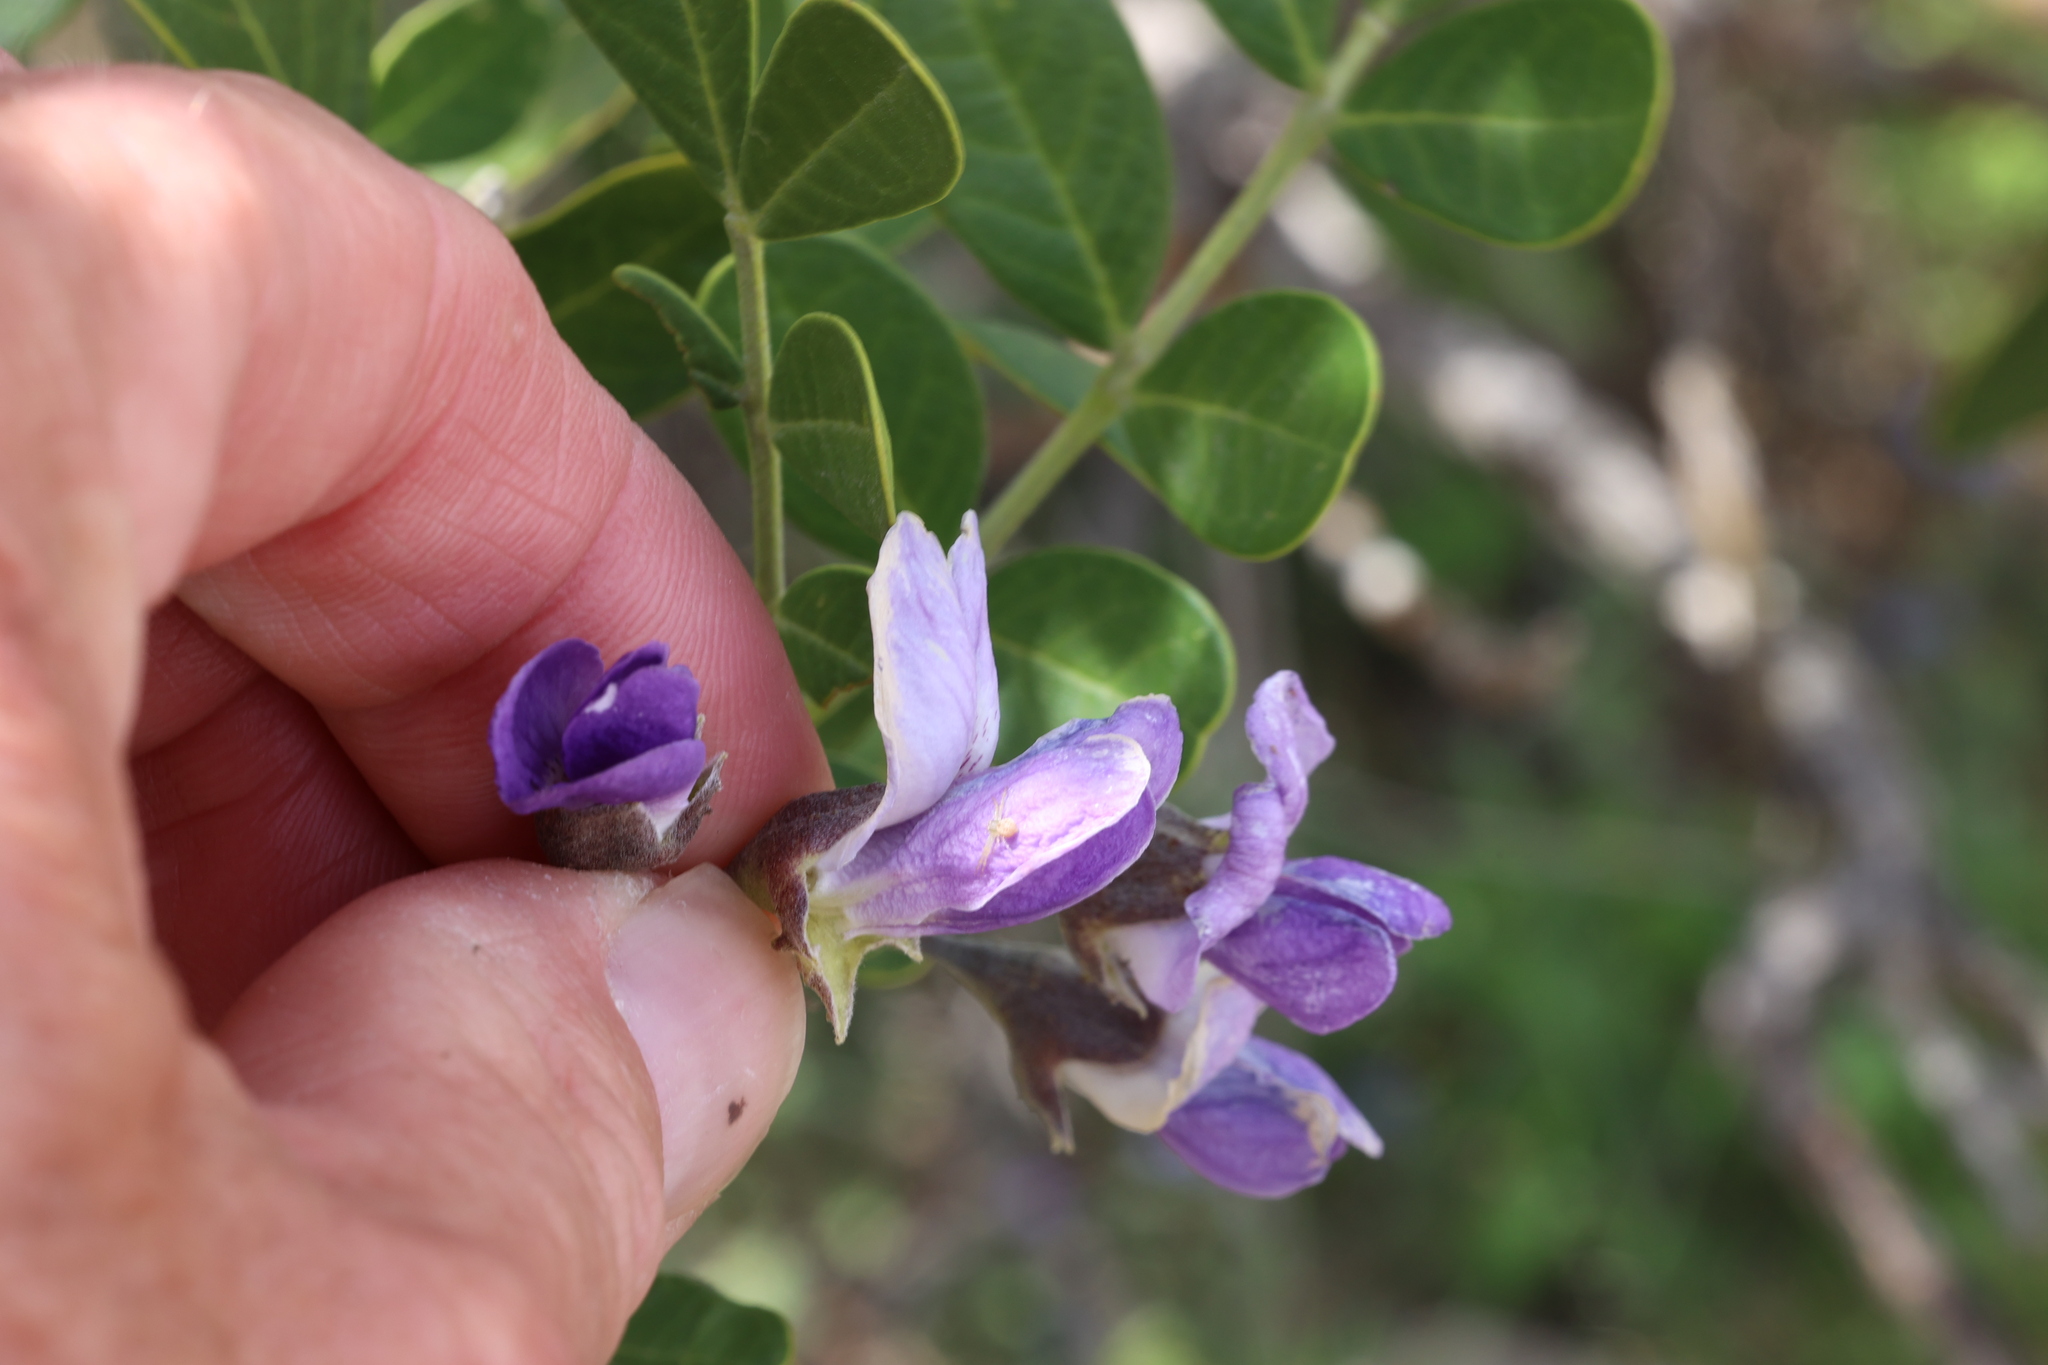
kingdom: Plantae
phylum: Tracheophyta
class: Magnoliopsida
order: Fabales
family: Fabaceae
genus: Dermatophyllum
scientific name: Dermatophyllum secundiflorum
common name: Texas-mountain-laurel
